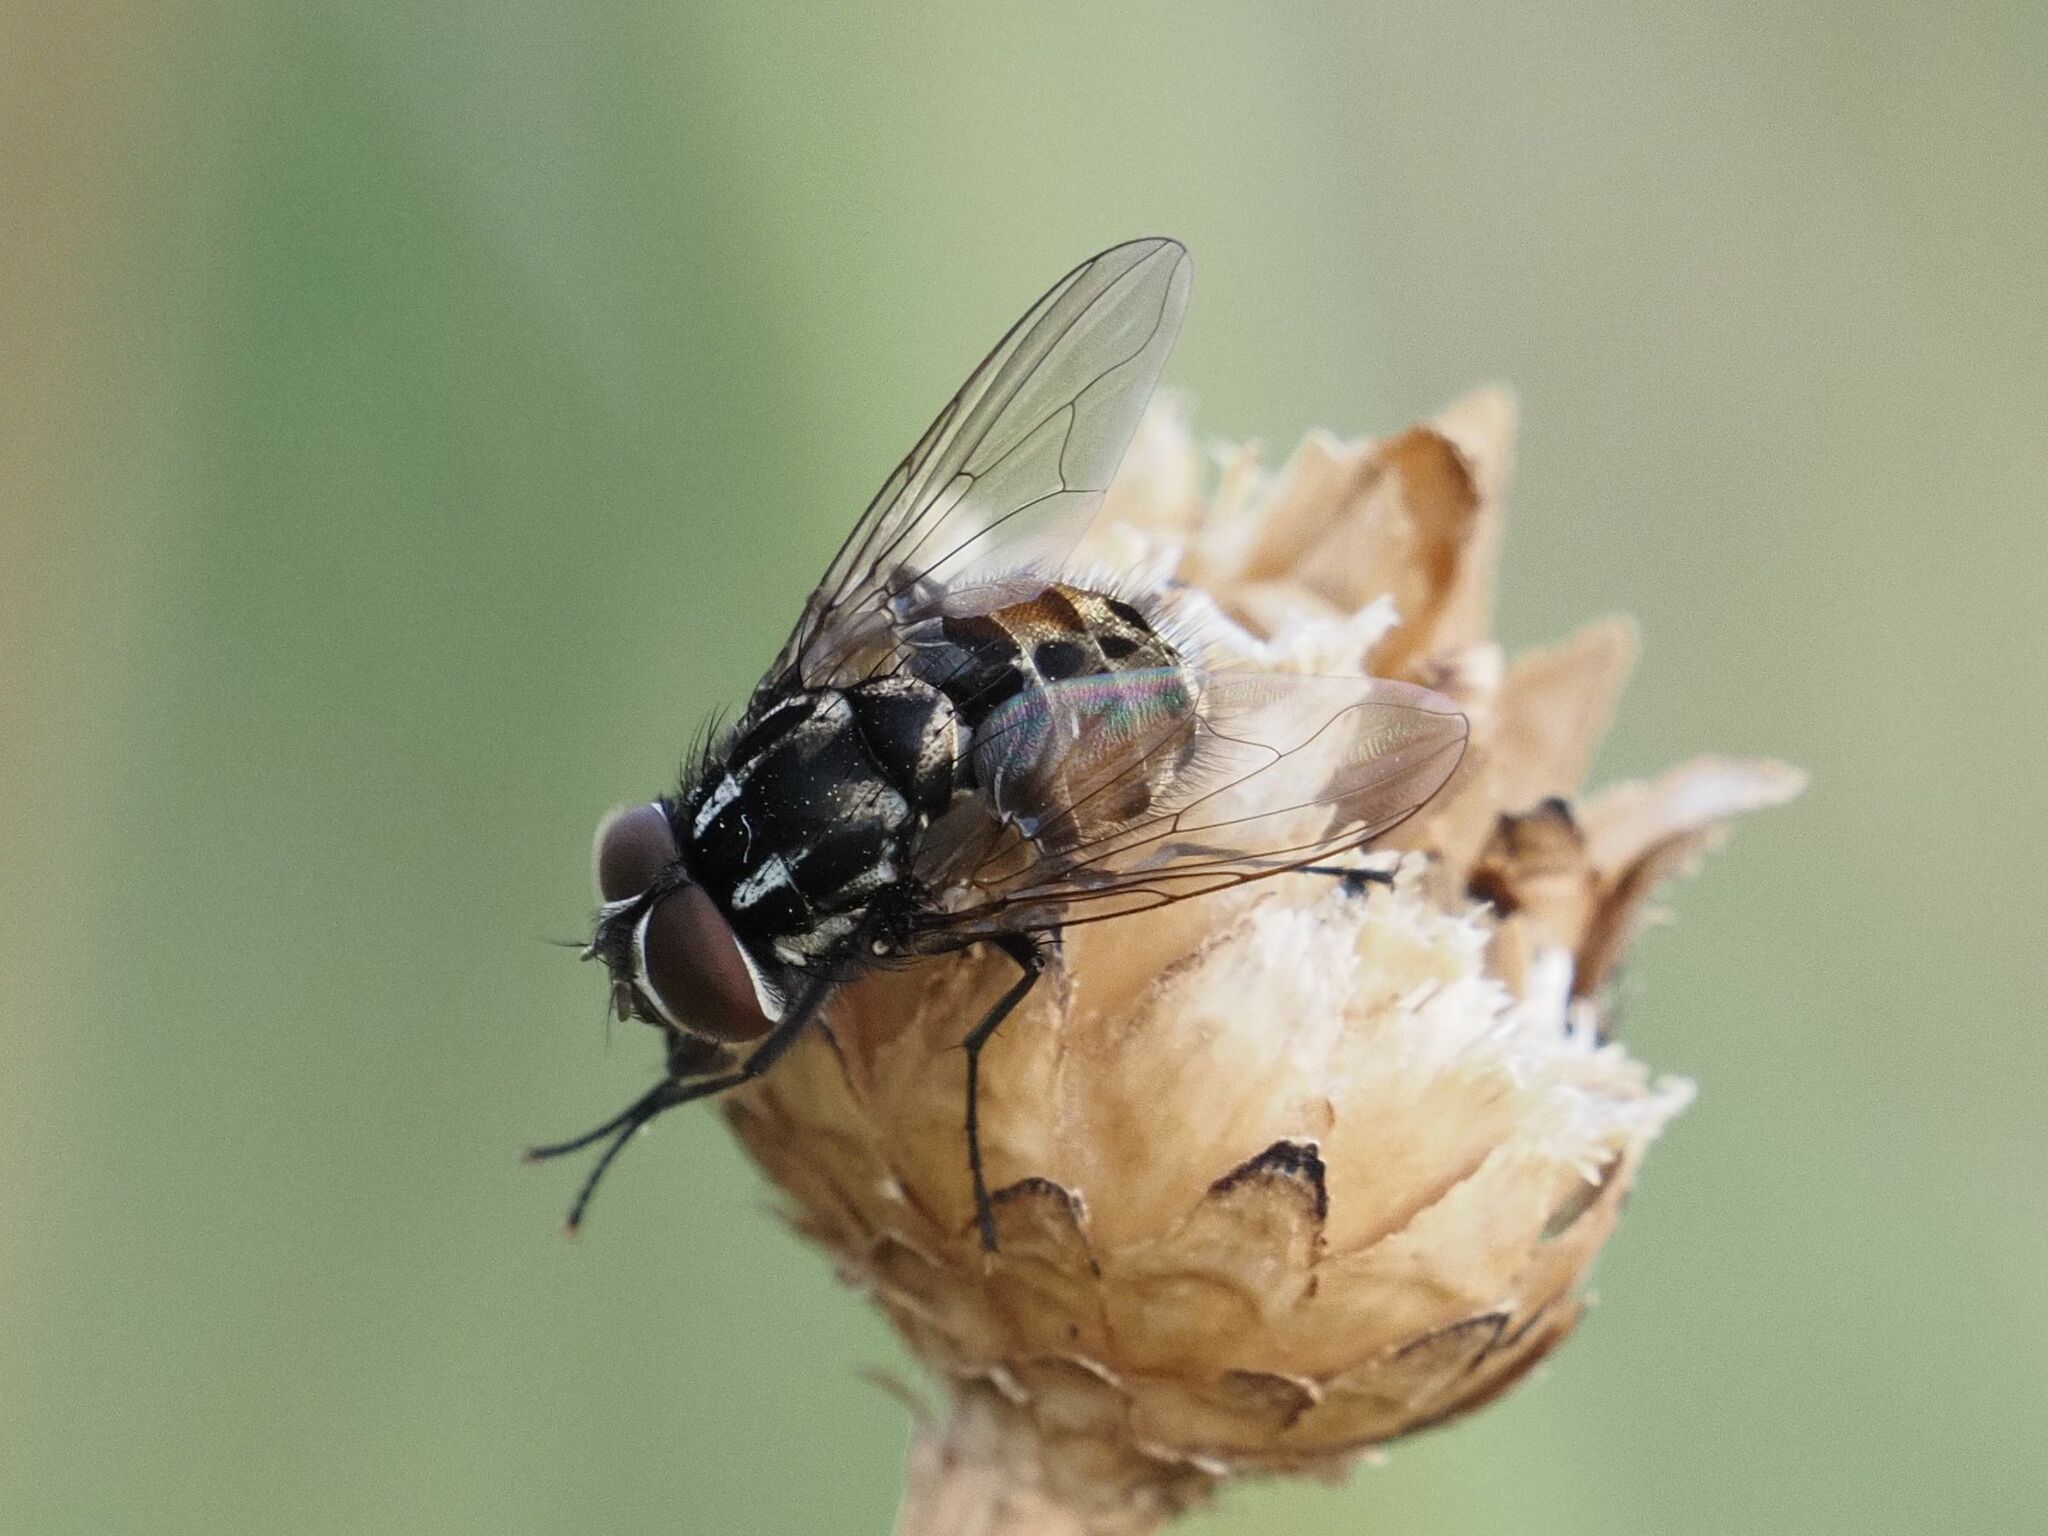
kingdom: Animalia
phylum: Arthropoda
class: Insecta
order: Diptera
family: Muscidae
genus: Graphomya
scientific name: Graphomya maculata
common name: Muscid fly
